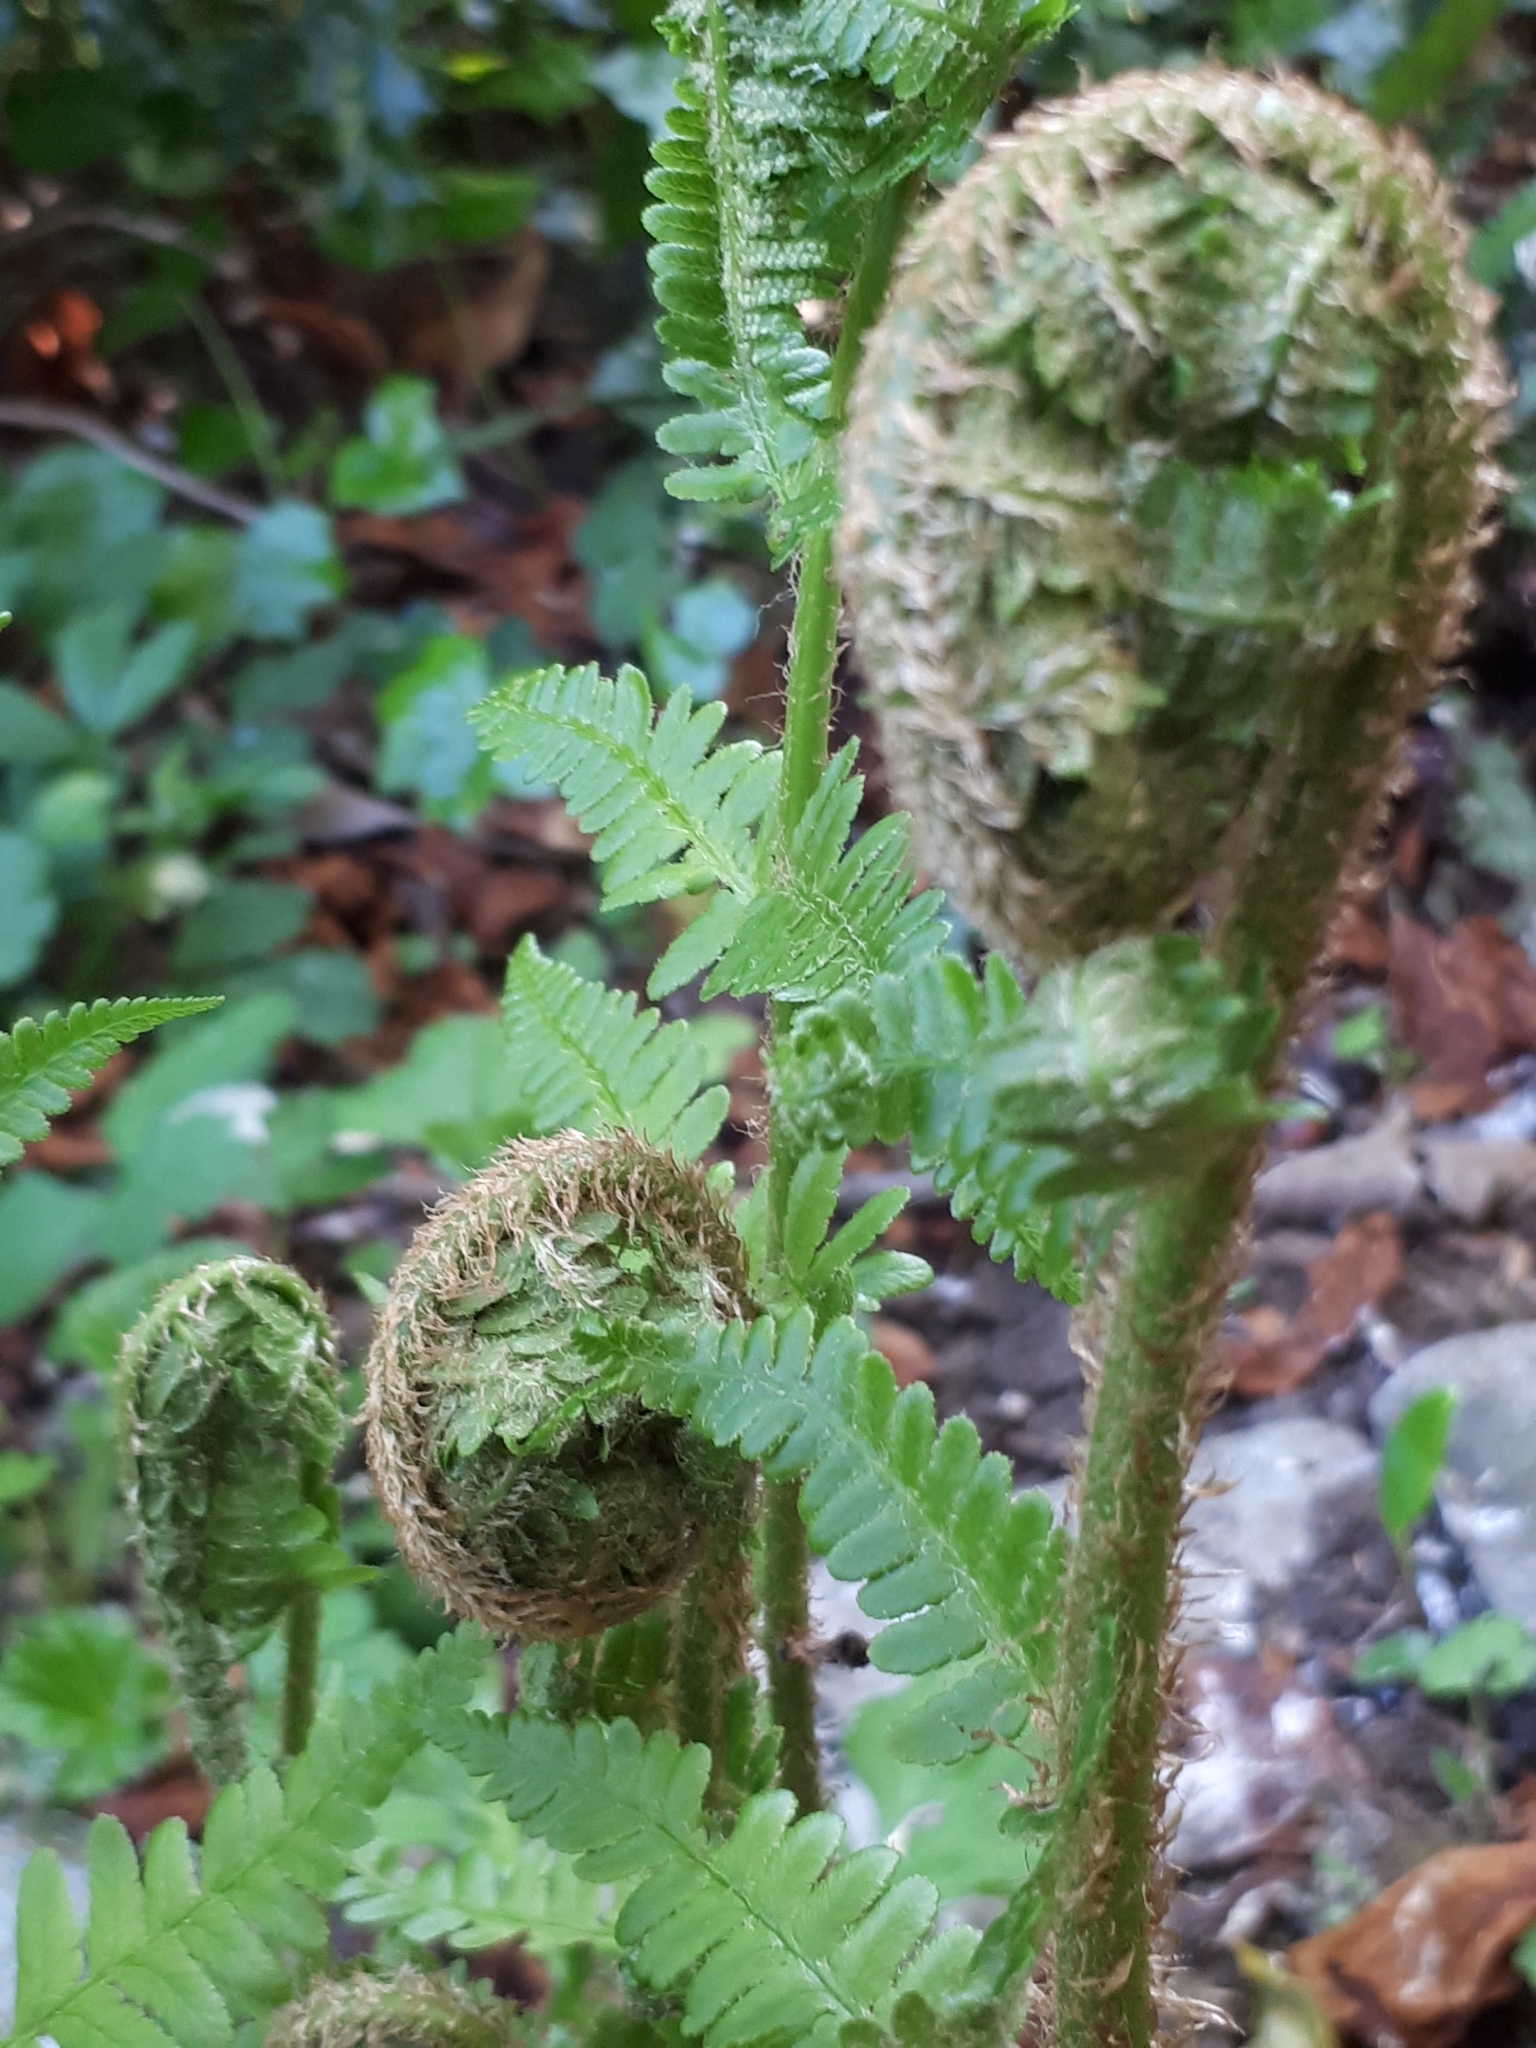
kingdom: Plantae
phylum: Tracheophyta
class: Polypodiopsida
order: Polypodiales
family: Dryopteridaceae
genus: Dryopteris
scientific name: Dryopteris filix-mas
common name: Male fern
